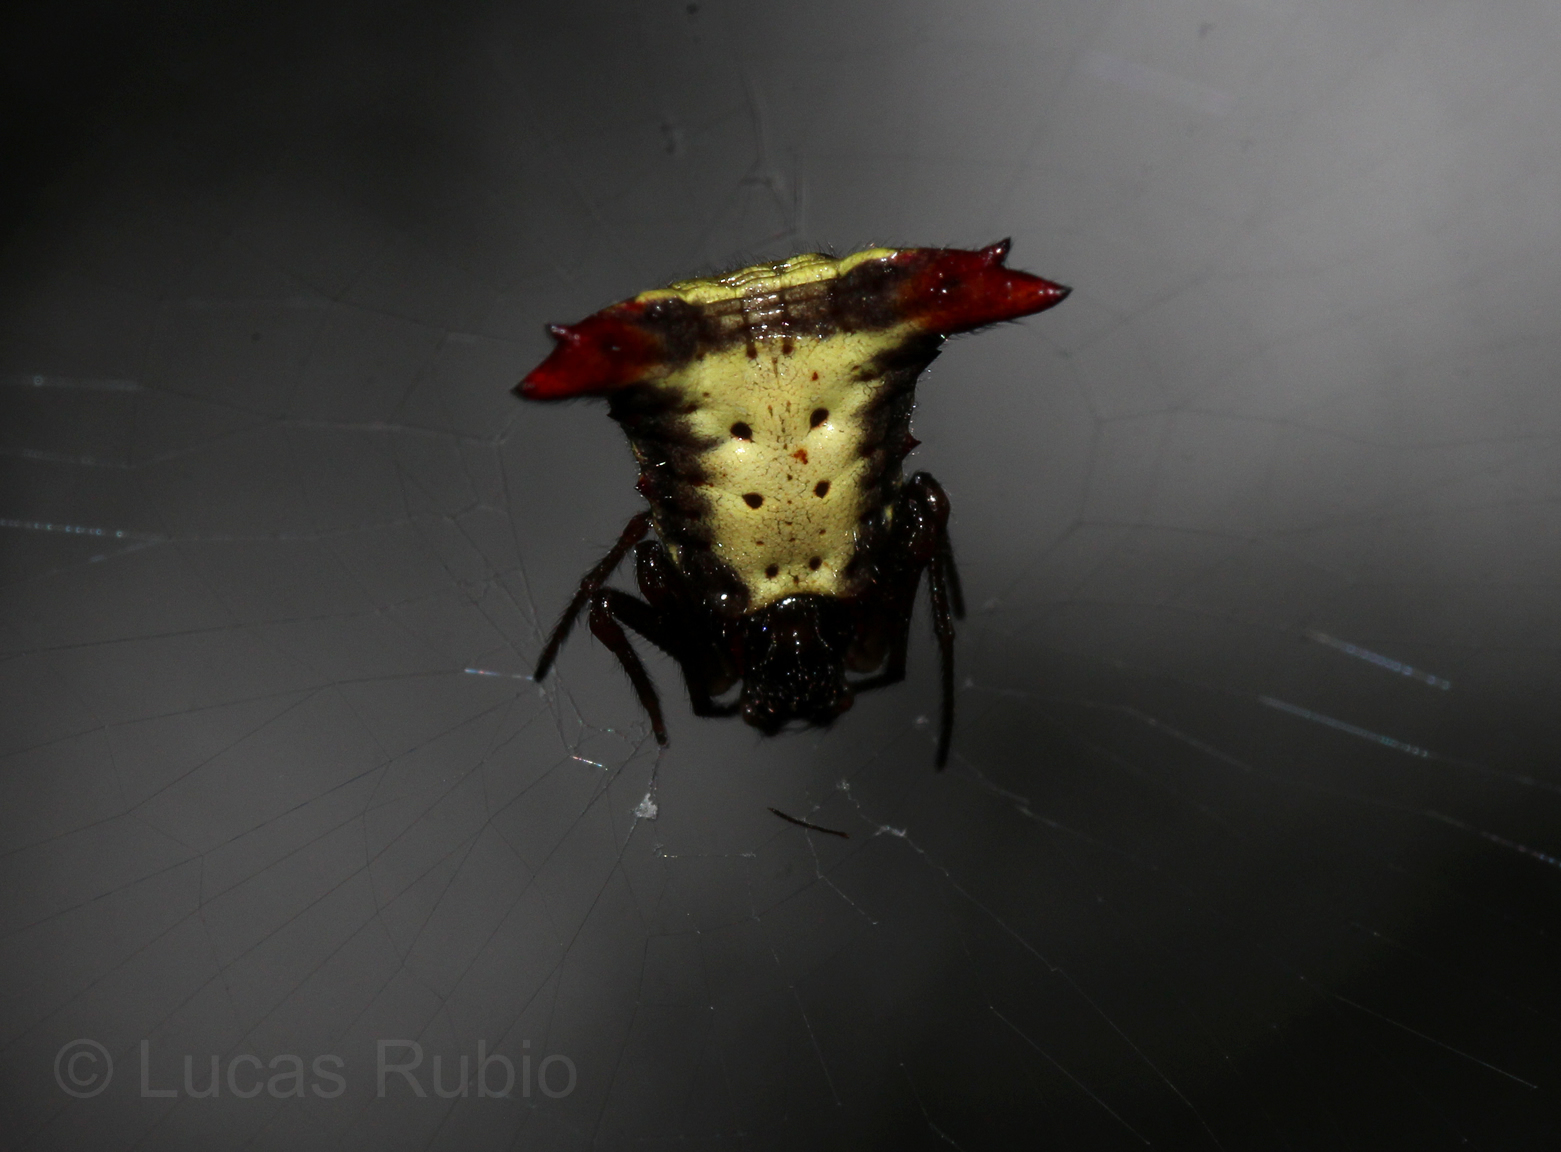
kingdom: Animalia
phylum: Arthropoda
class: Arachnida
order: Araneae
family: Araneidae
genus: Micrathena
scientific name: Micrathena plana
